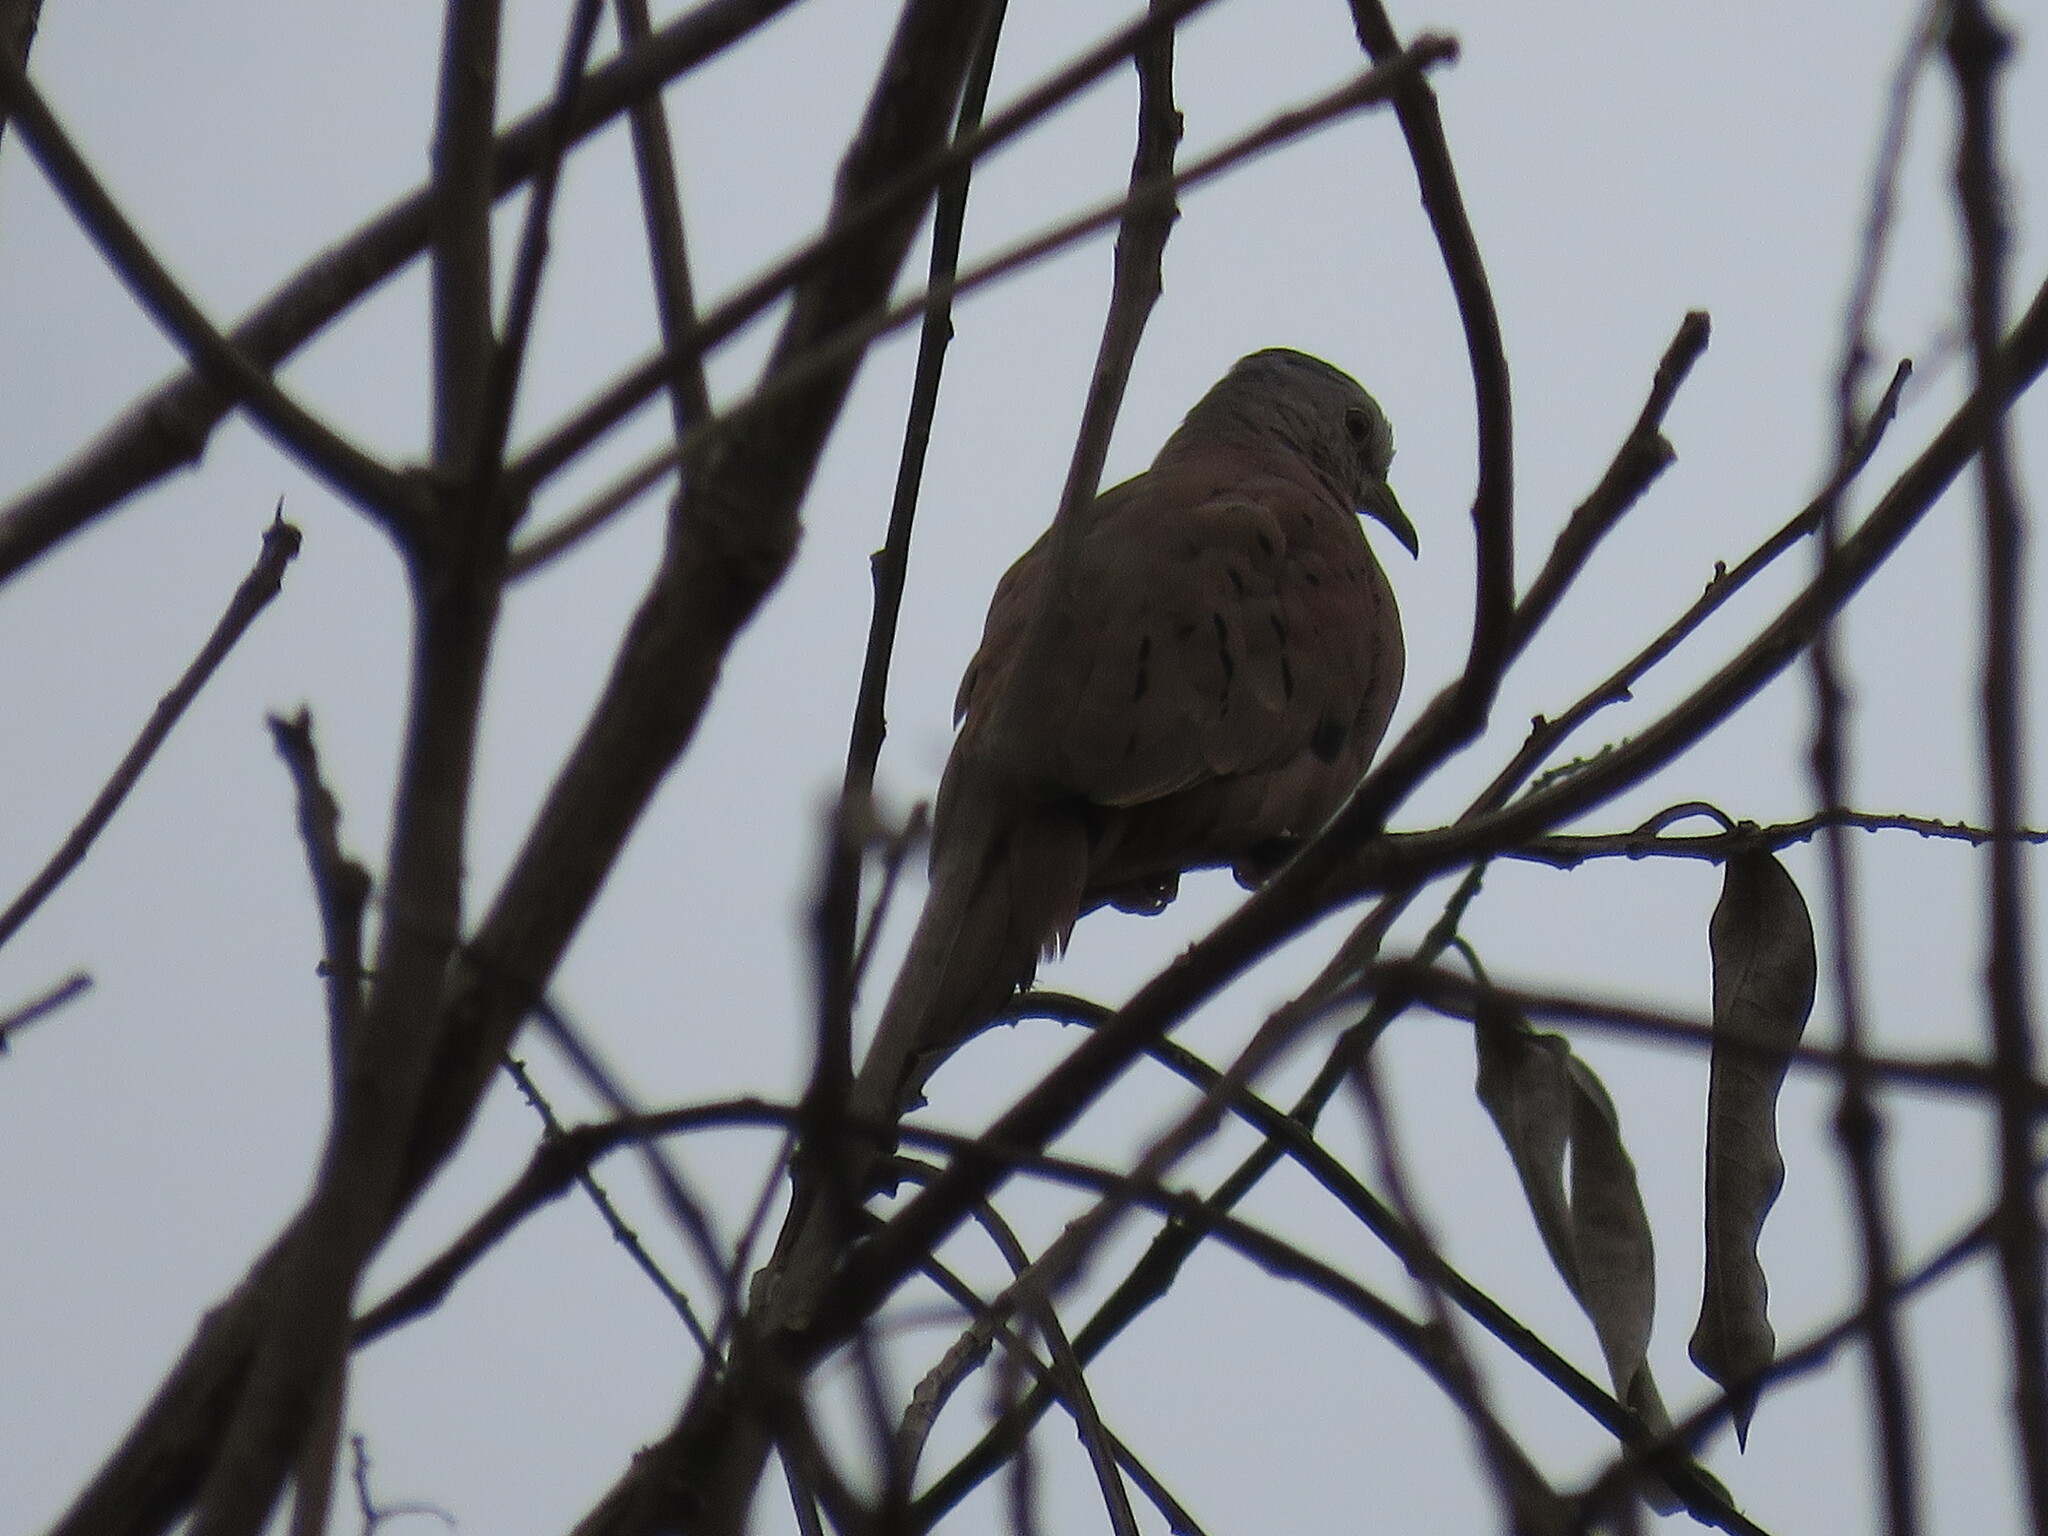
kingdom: Animalia
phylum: Chordata
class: Aves
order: Columbiformes
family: Columbidae
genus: Columbina
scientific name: Columbina talpacoti
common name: Ruddy ground dove
